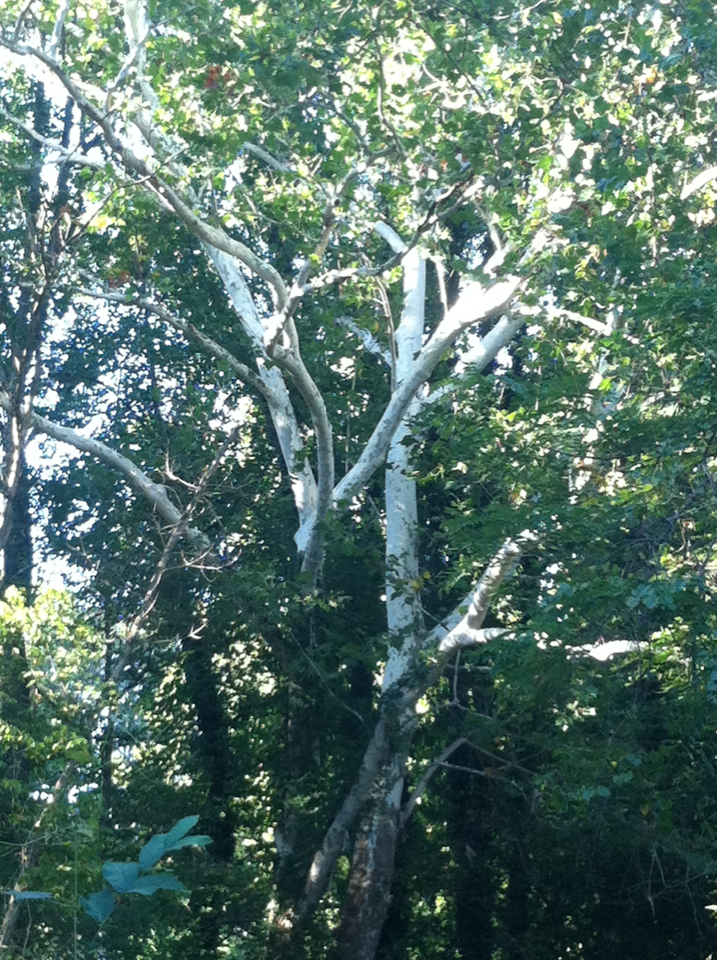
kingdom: Plantae
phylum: Tracheophyta
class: Magnoliopsida
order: Proteales
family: Platanaceae
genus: Platanus
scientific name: Platanus occidentalis
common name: American sycamore
